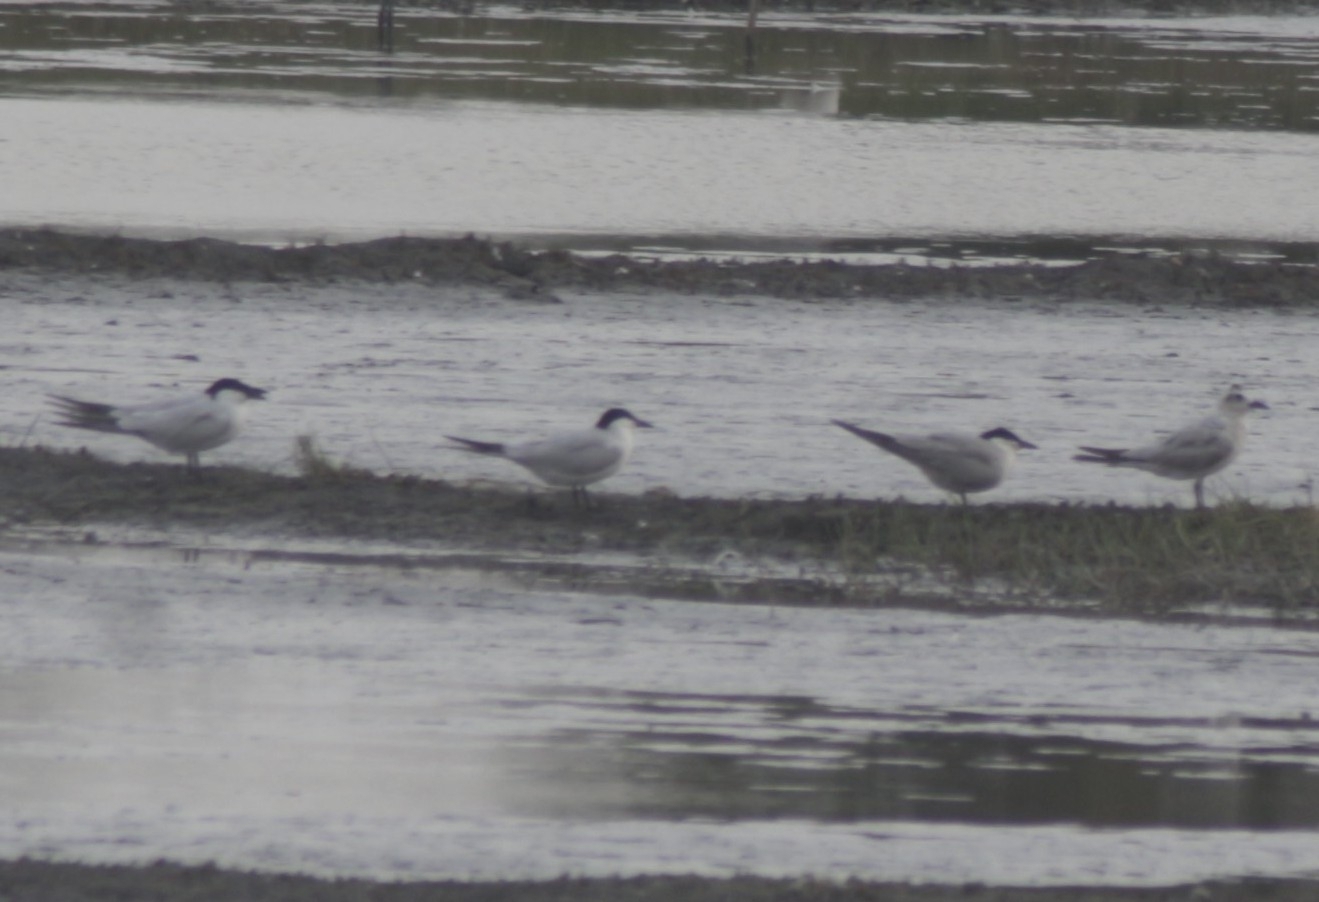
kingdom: Animalia
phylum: Chordata
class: Aves
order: Charadriiformes
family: Laridae
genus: Gelochelidon
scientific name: Gelochelidon nilotica
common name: Gull-billed tern
